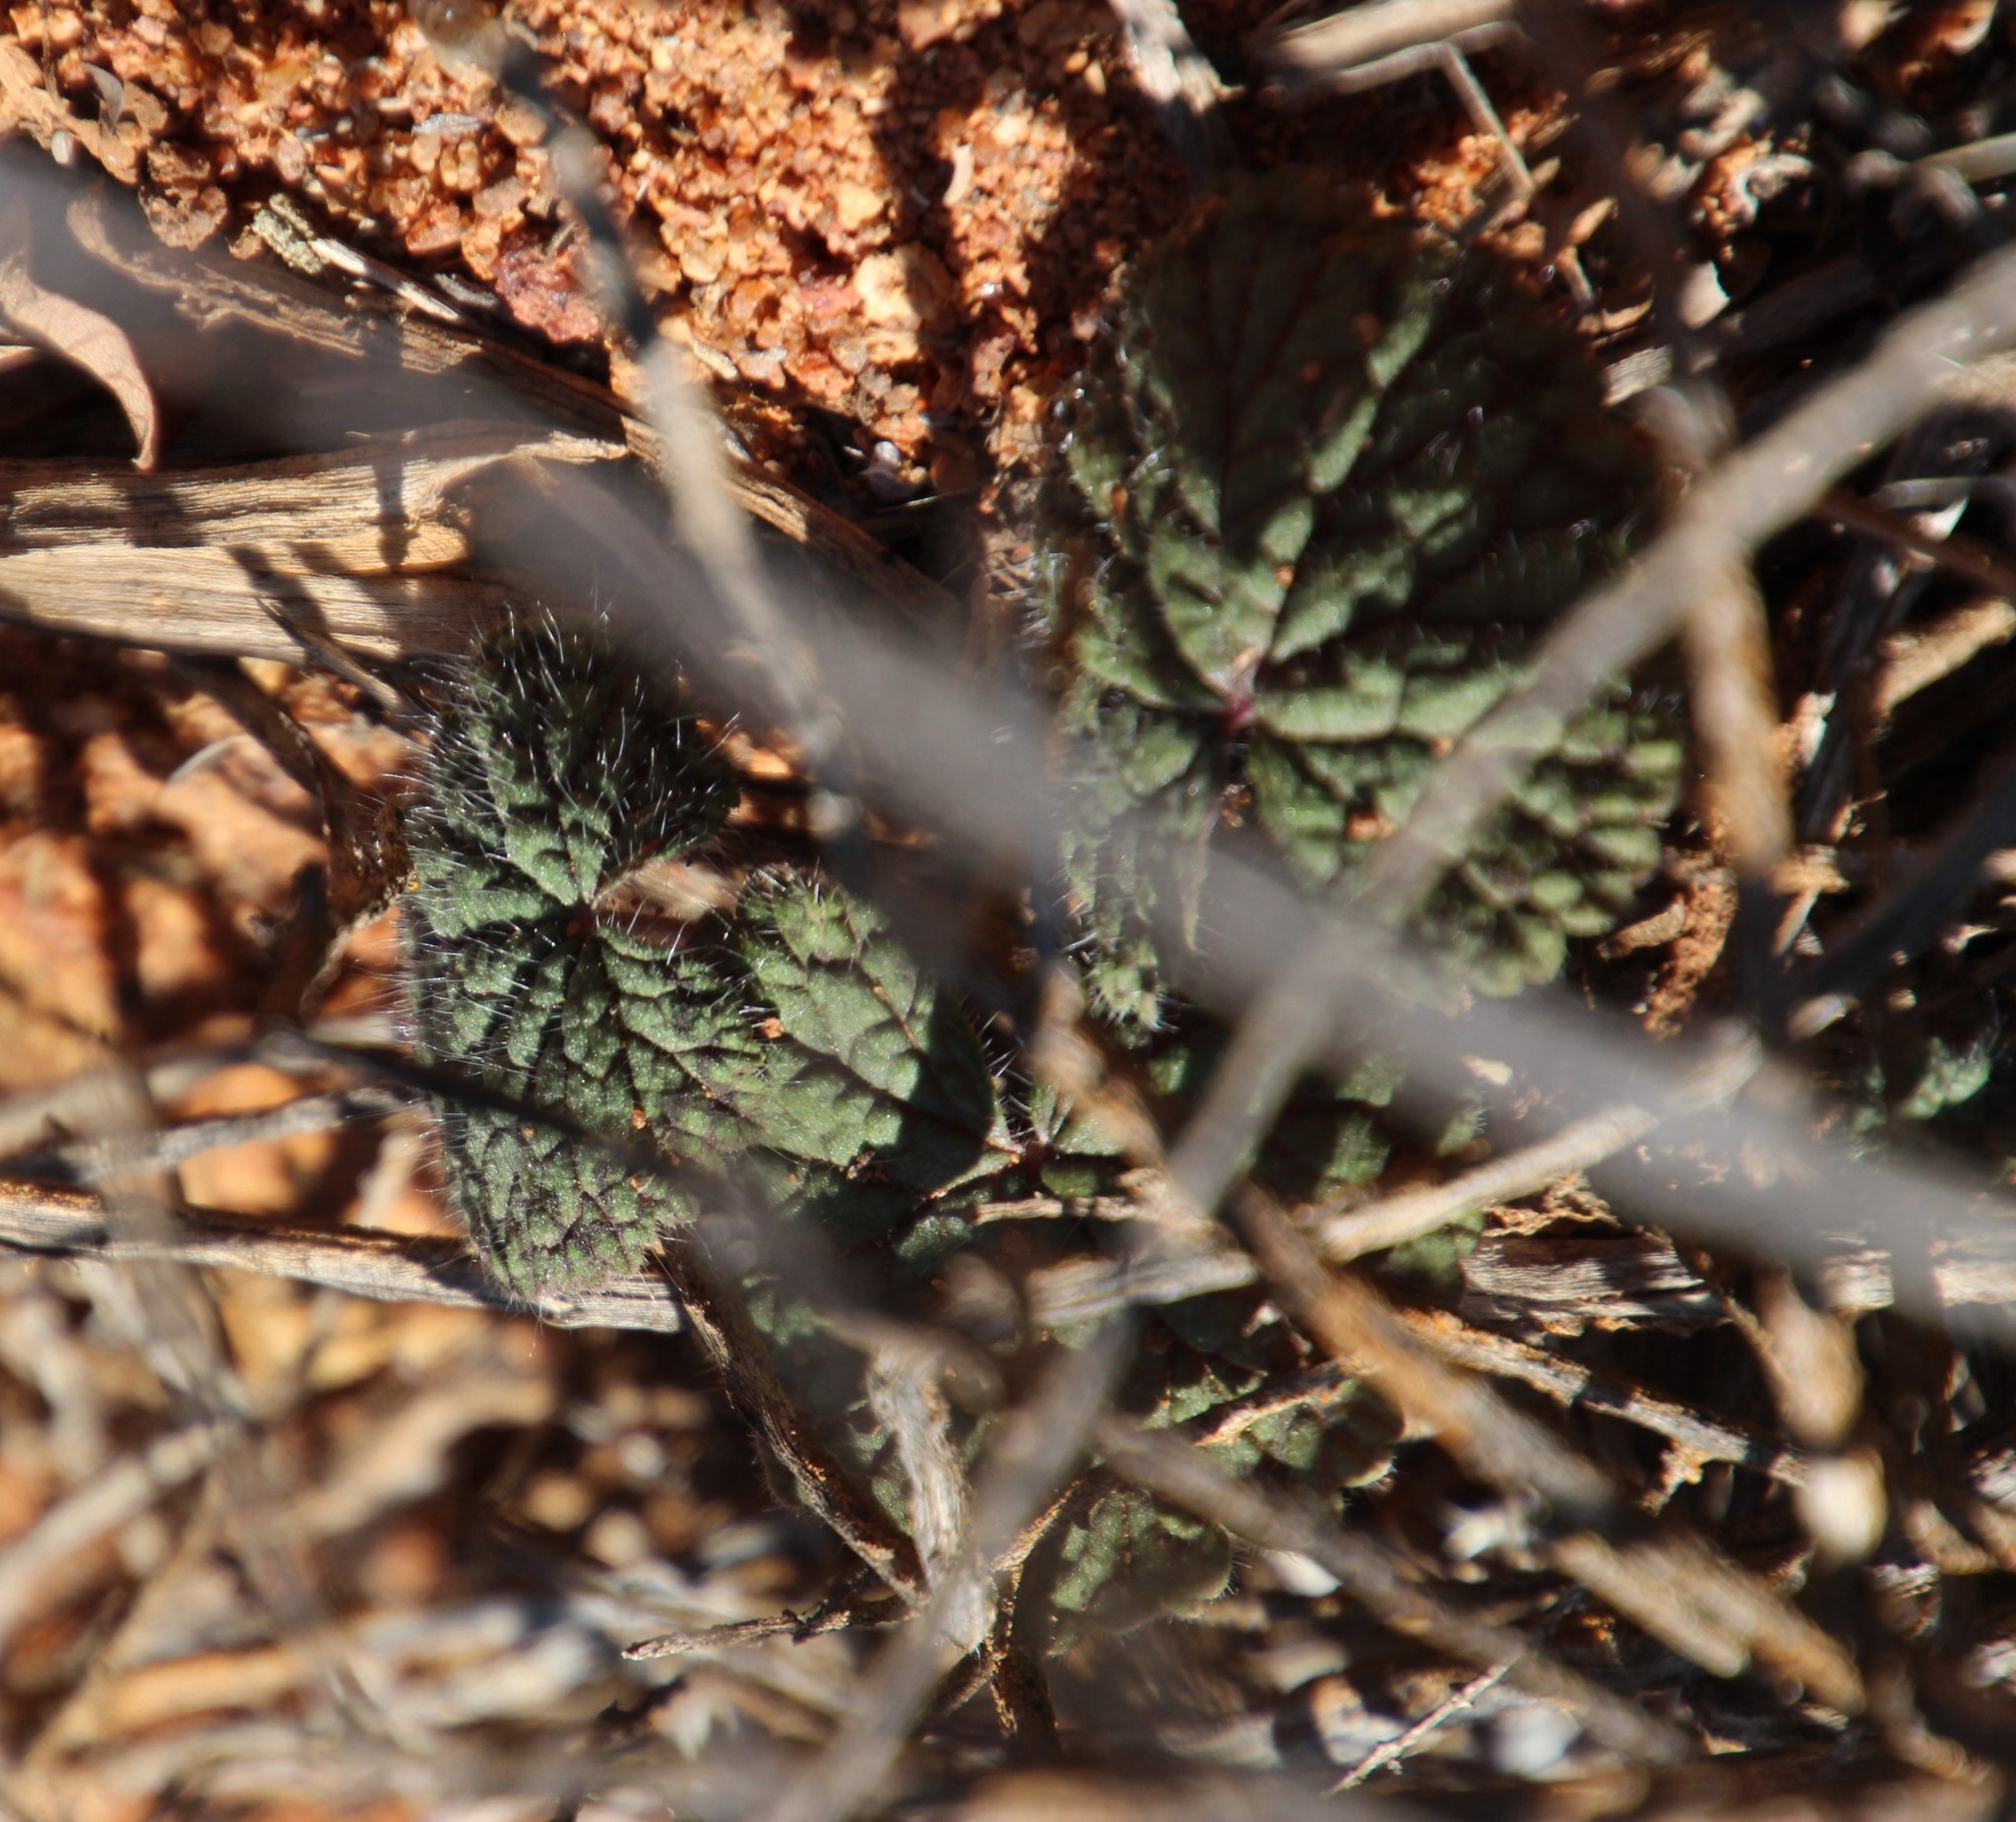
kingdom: Plantae
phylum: Tracheophyta
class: Magnoliopsida
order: Geraniales
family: Geraniaceae
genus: Pelargonium
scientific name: Pelargonium barklyi
